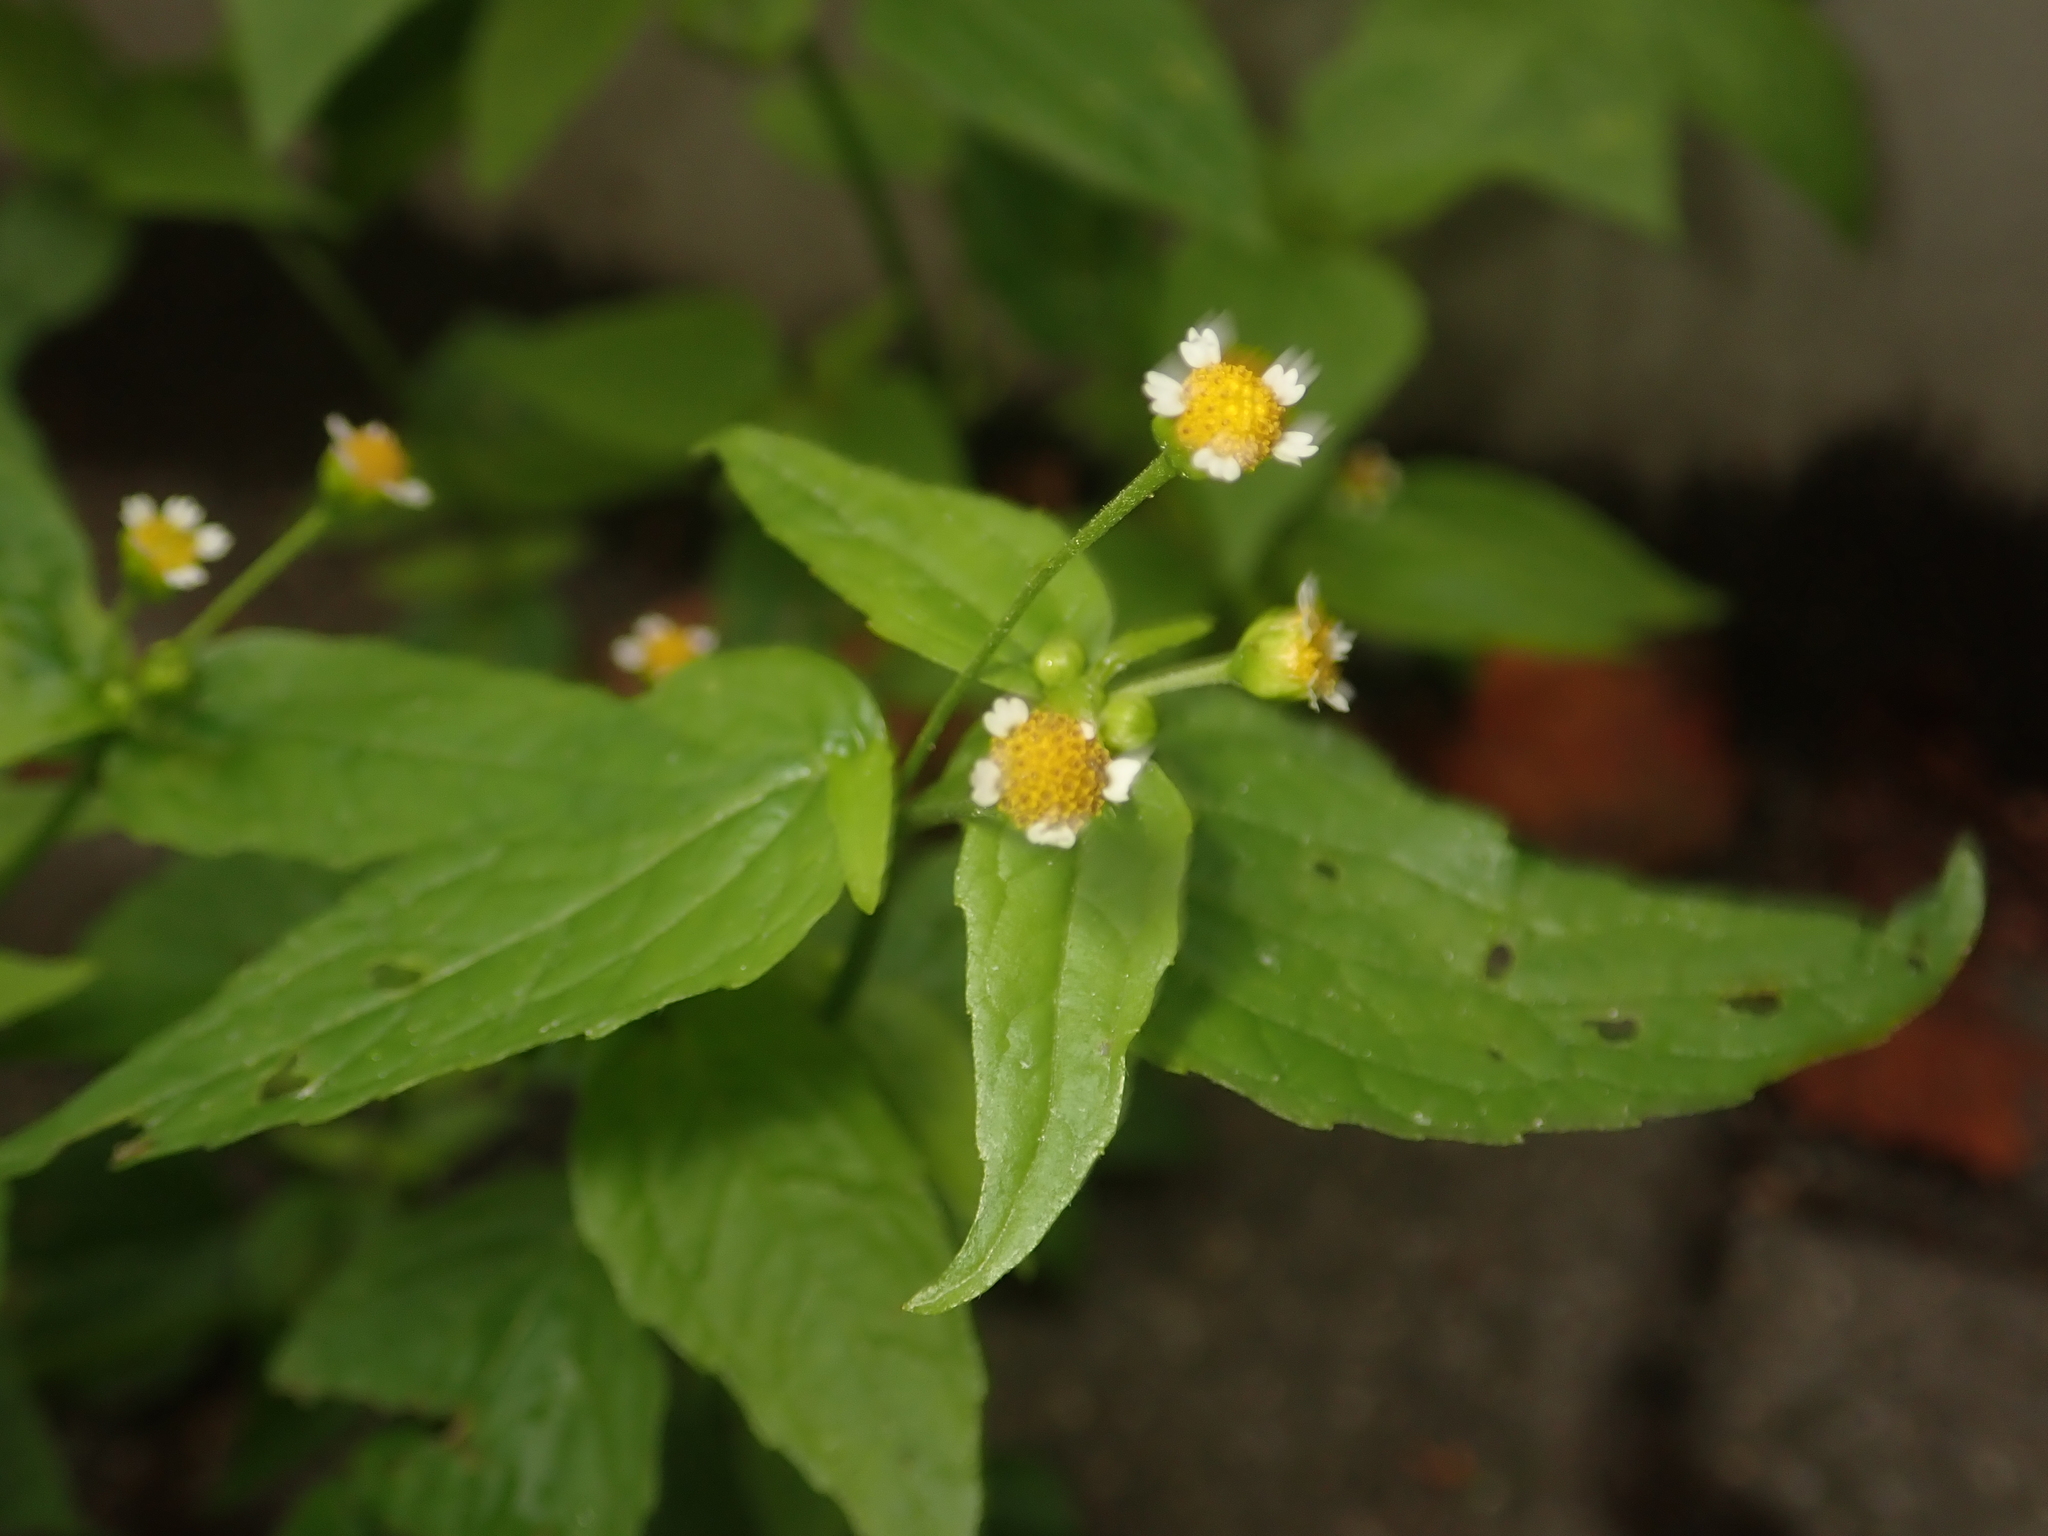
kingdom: Plantae
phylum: Tracheophyta
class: Magnoliopsida
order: Asterales
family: Asteraceae
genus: Galinsoga
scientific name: Galinsoga parviflora
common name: Gallant soldier
